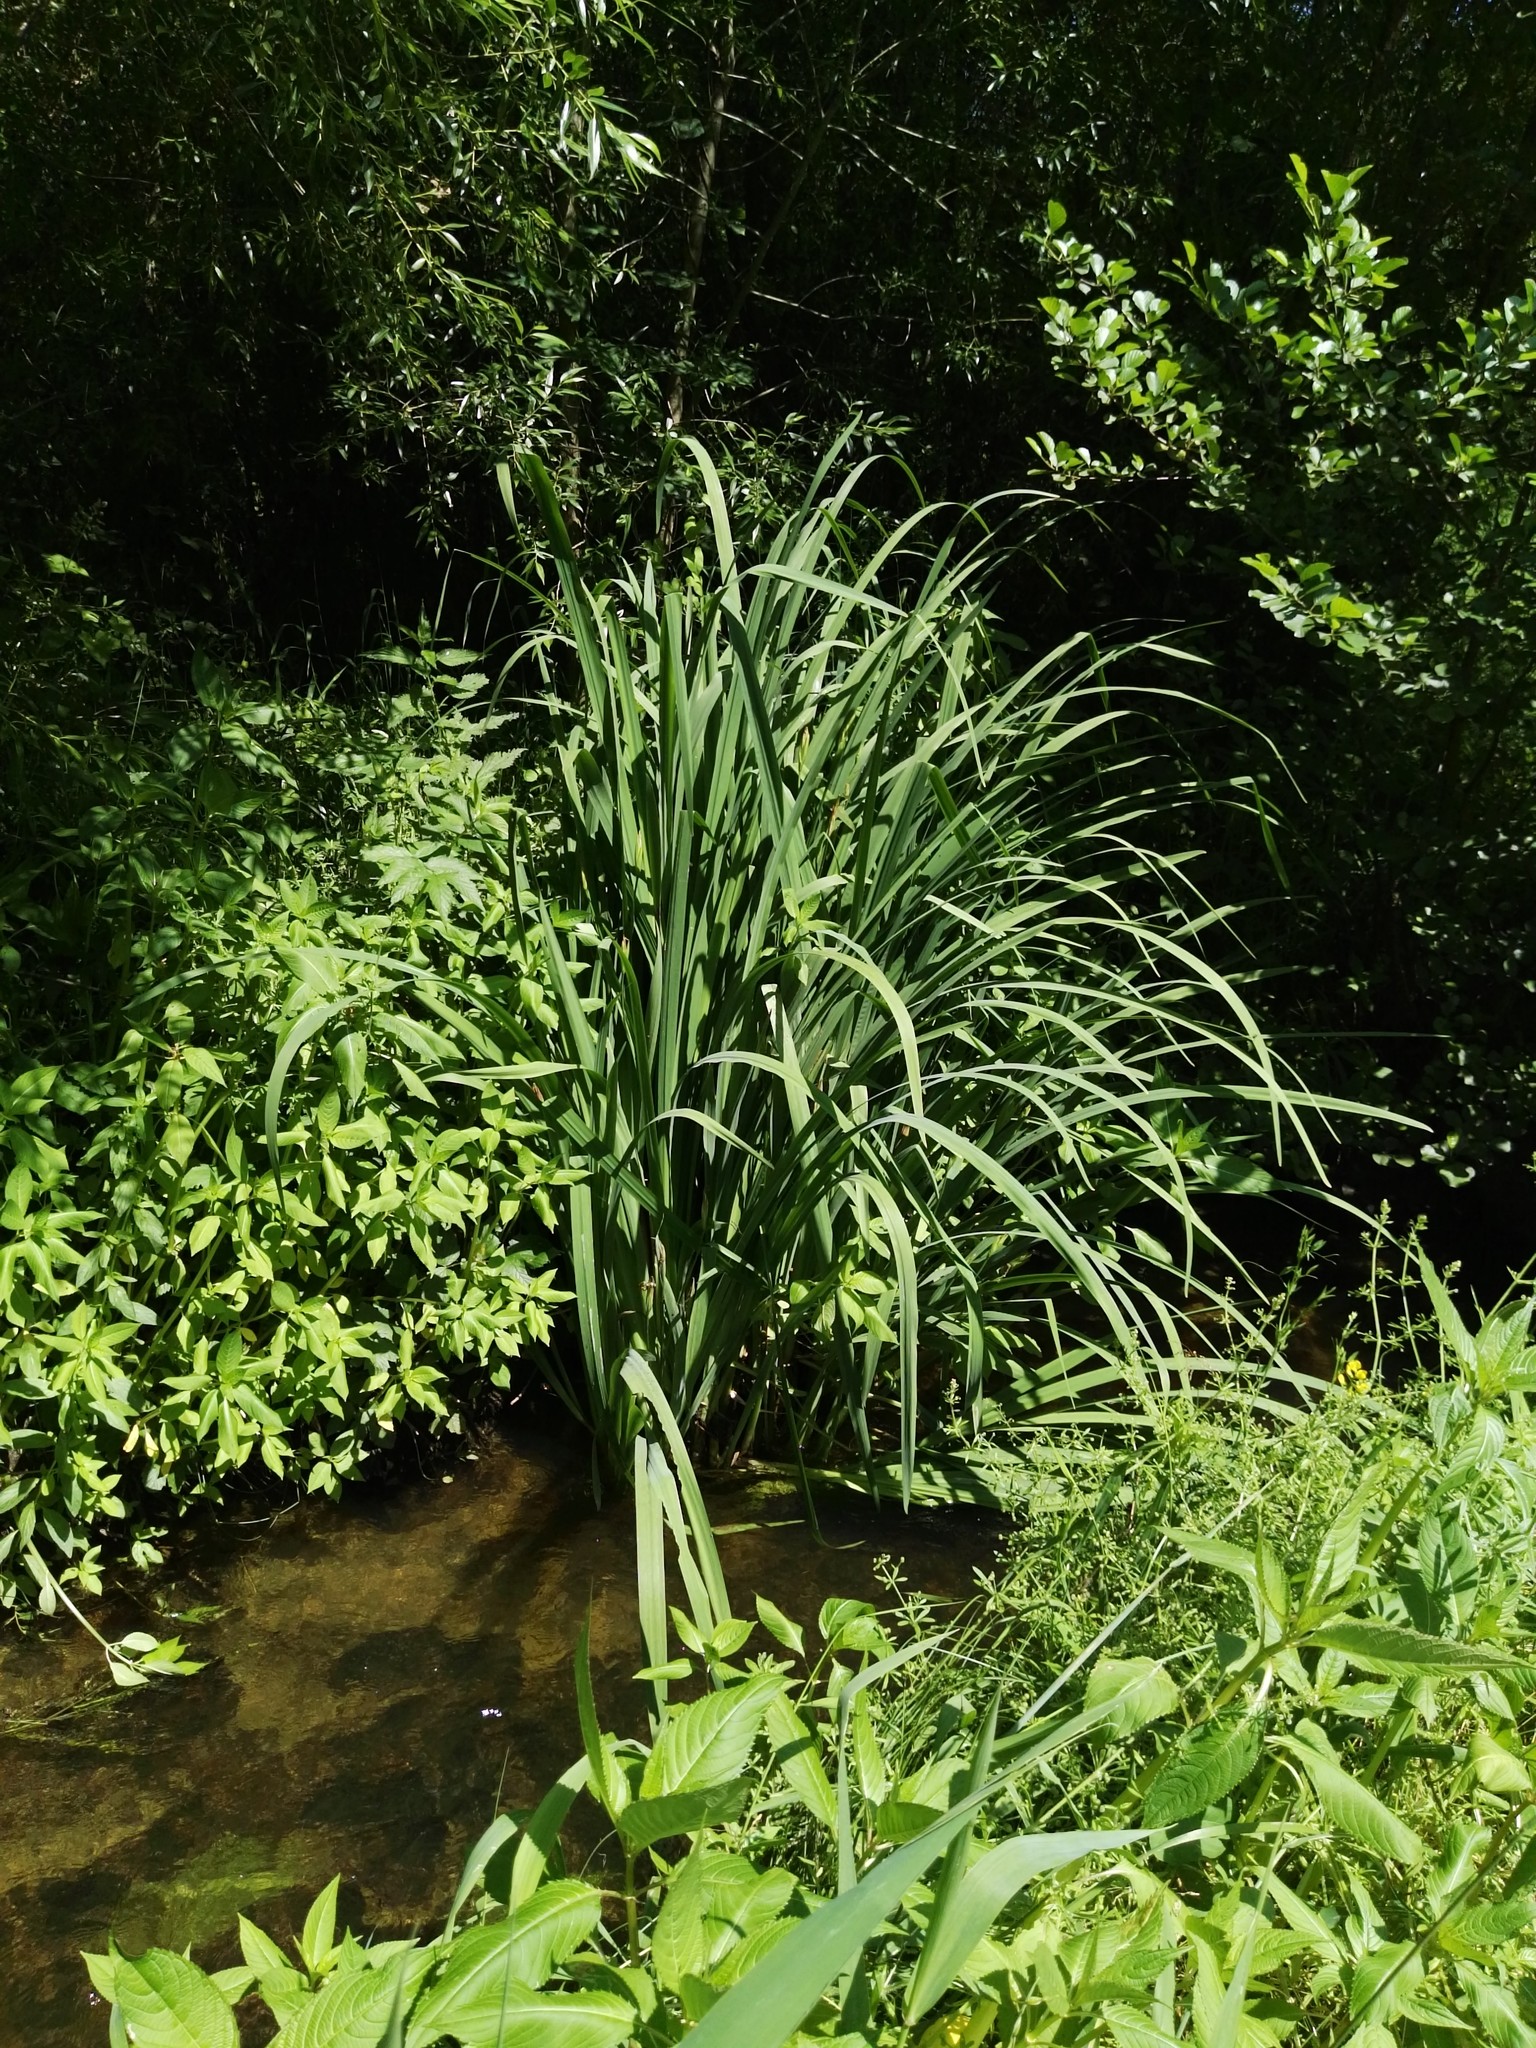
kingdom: Plantae
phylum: Tracheophyta
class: Liliopsida
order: Asparagales
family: Iridaceae
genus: Iris
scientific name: Iris pseudacorus
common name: Yellow flag
